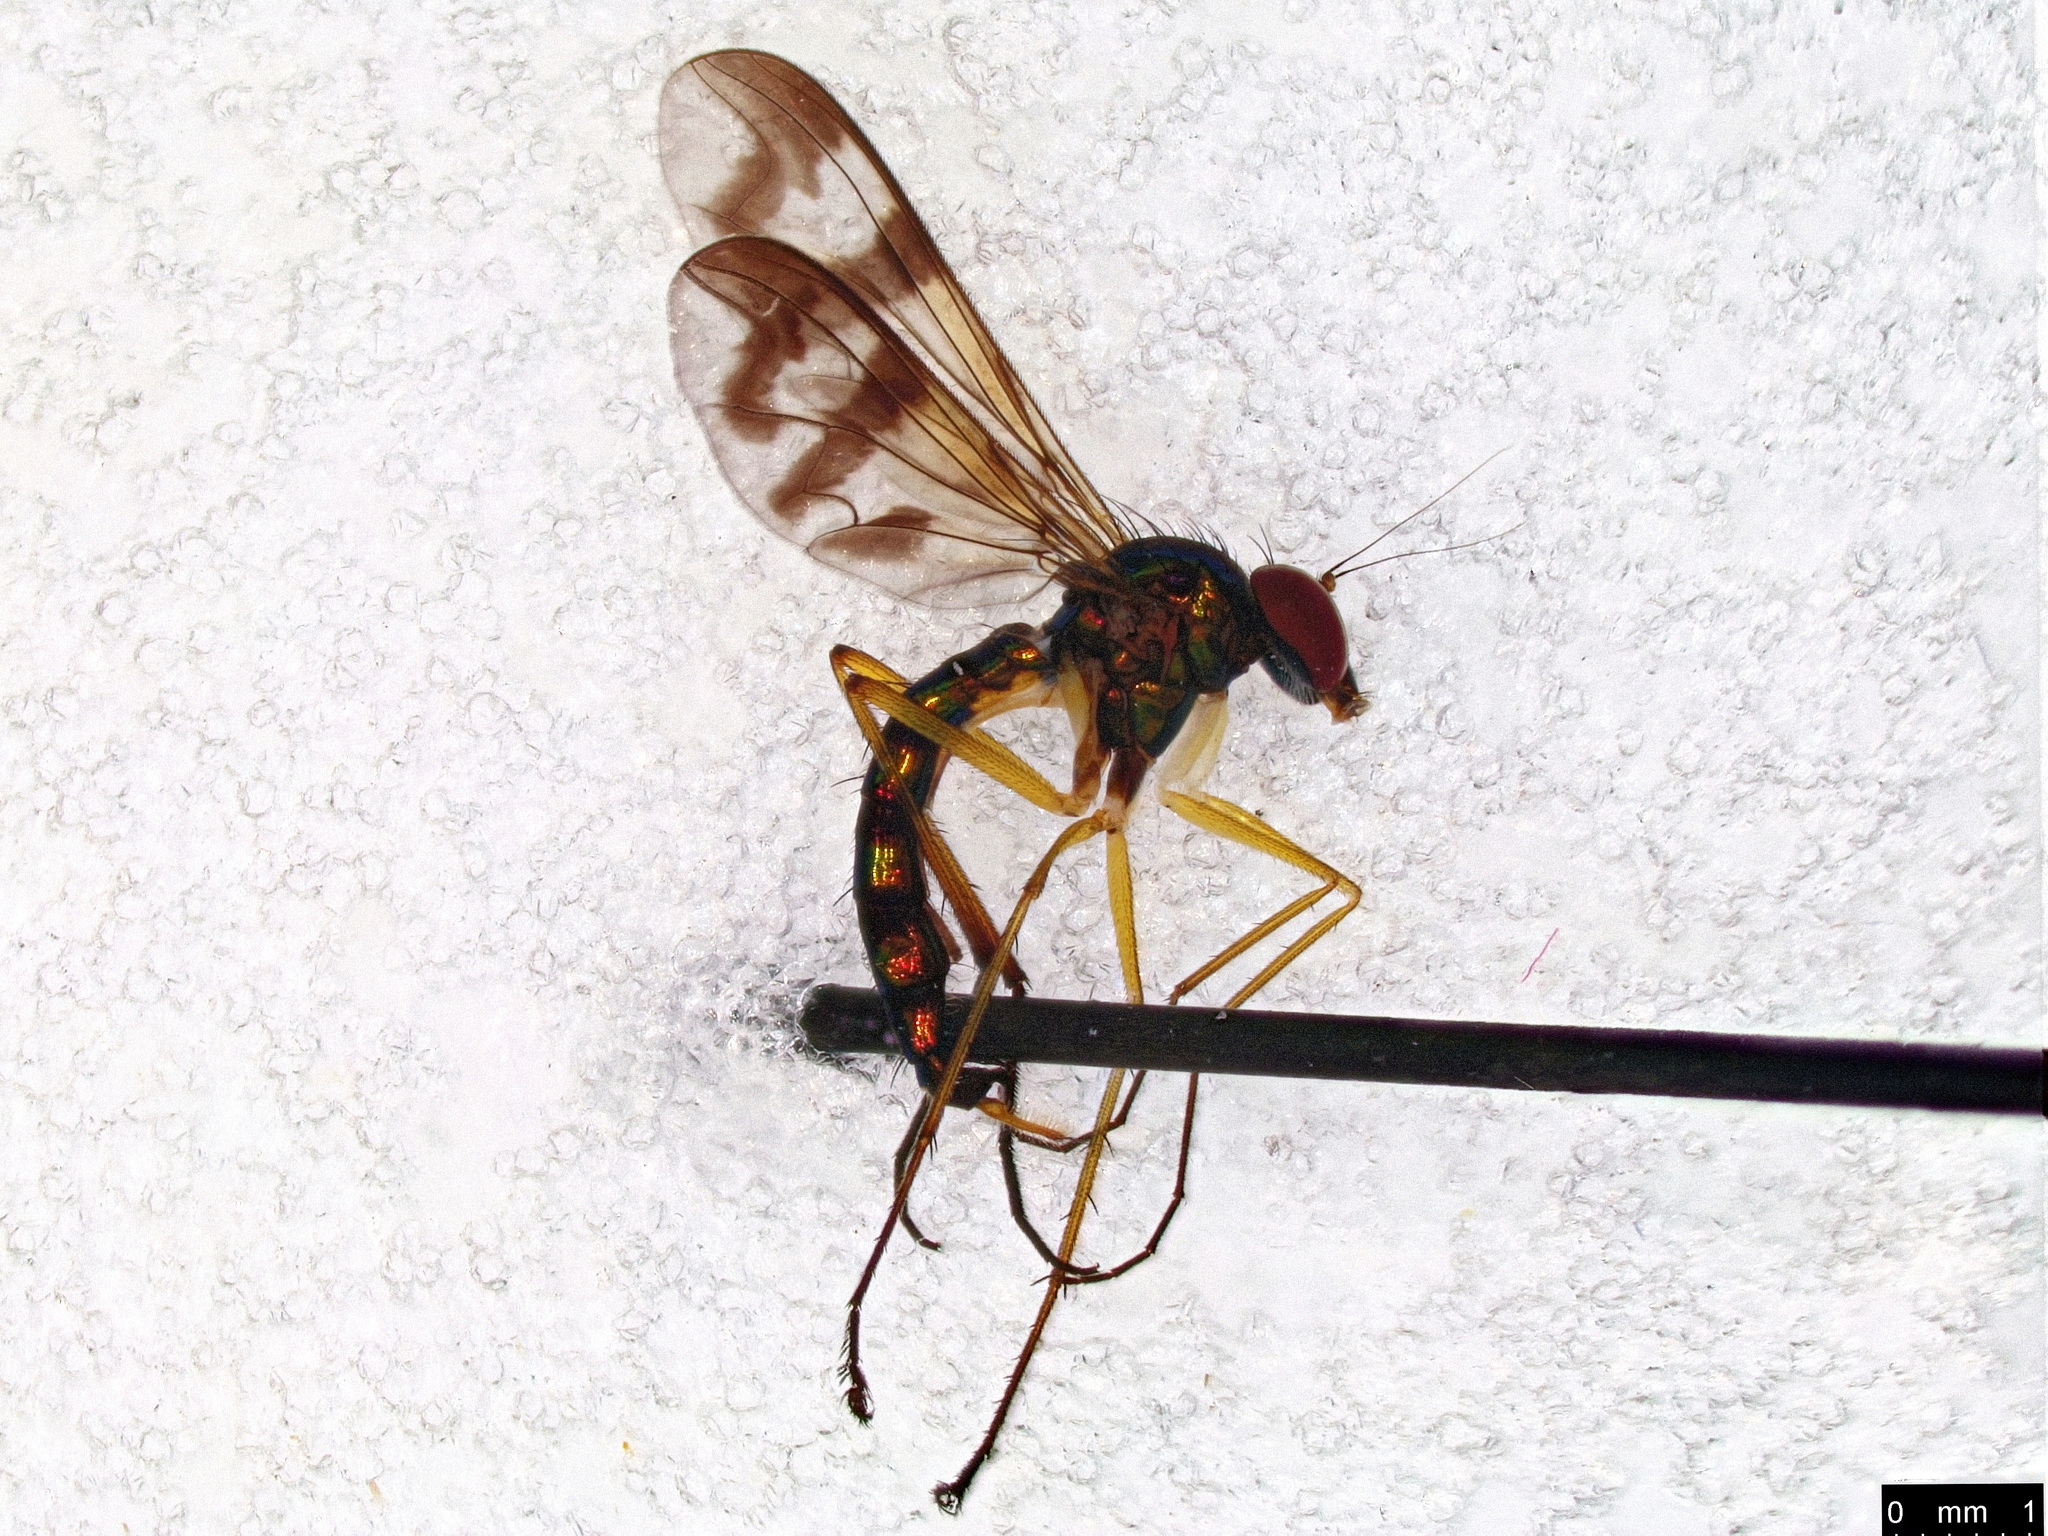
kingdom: Animalia
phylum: Arthropoda
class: Insecta
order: Diptera
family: Dolichopodidae
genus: Heteropsilopus
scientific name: Heteropsilopus ingenuum
